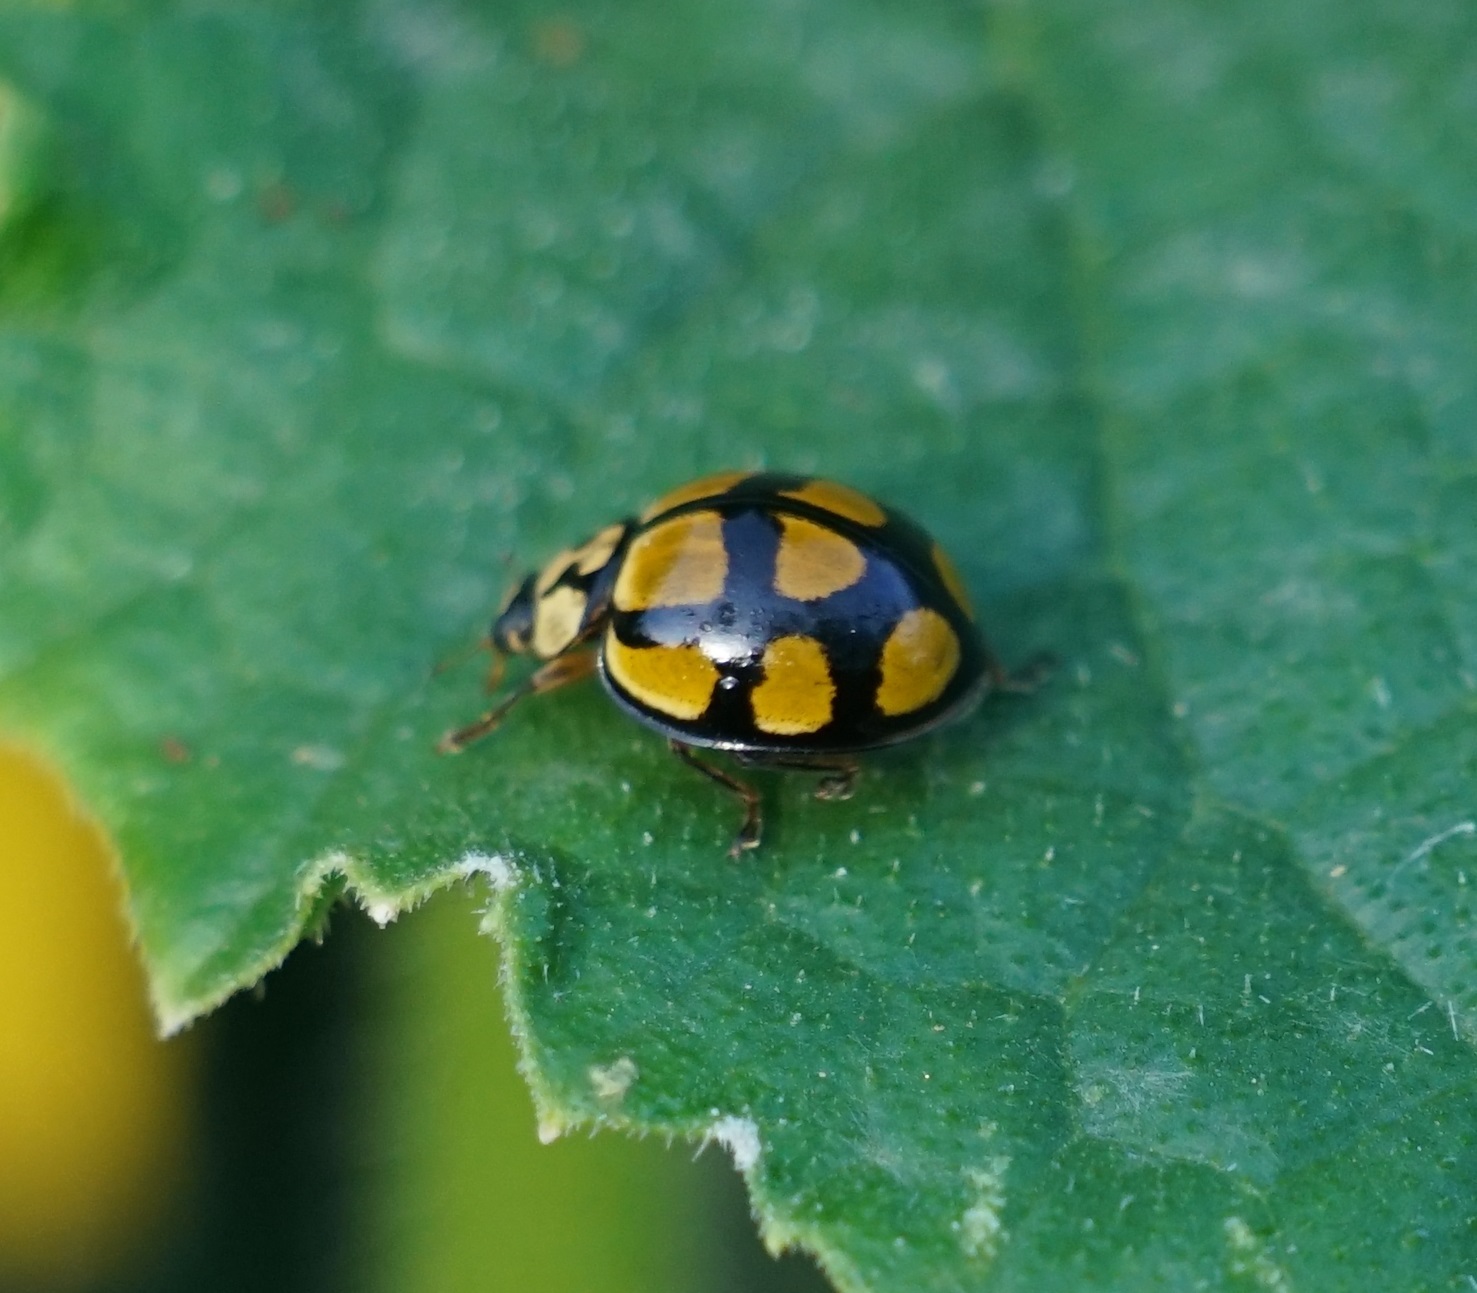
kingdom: Animalia
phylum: Arthropoda
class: Insecta
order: Coleoptera
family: Coccinellidae
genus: Harmonia
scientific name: Harmonia
